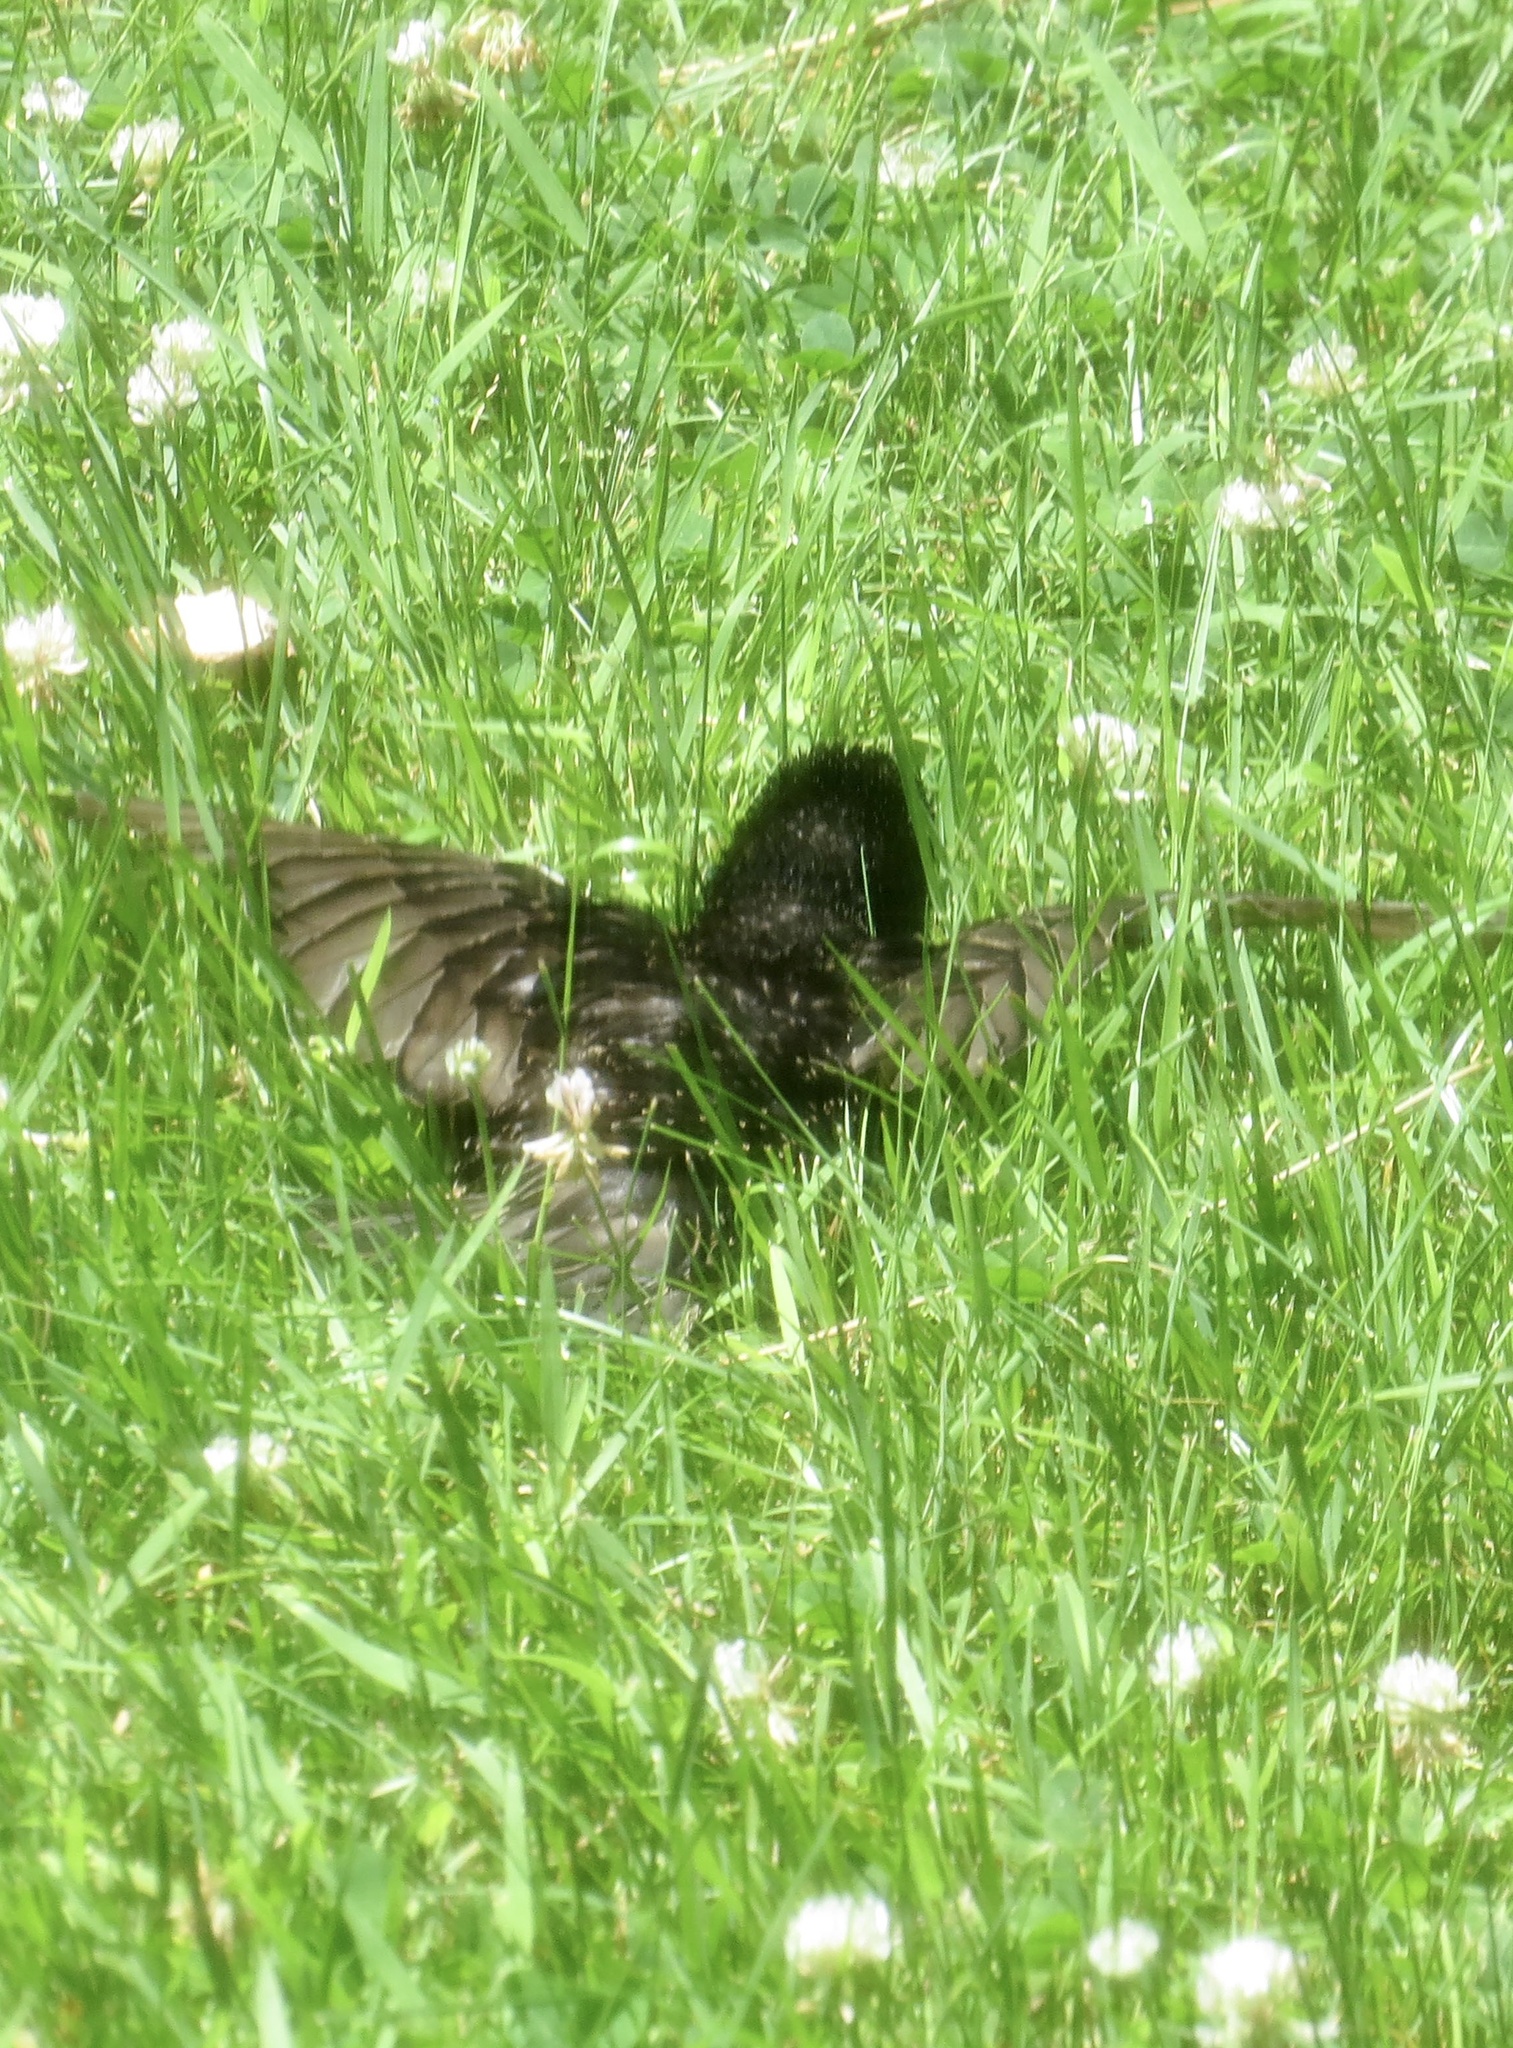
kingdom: Animalia
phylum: Chordata
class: Aves
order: Passeriformes
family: Sturnidae
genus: Sturnus
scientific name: Sturnus vulgaris
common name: Common starling
